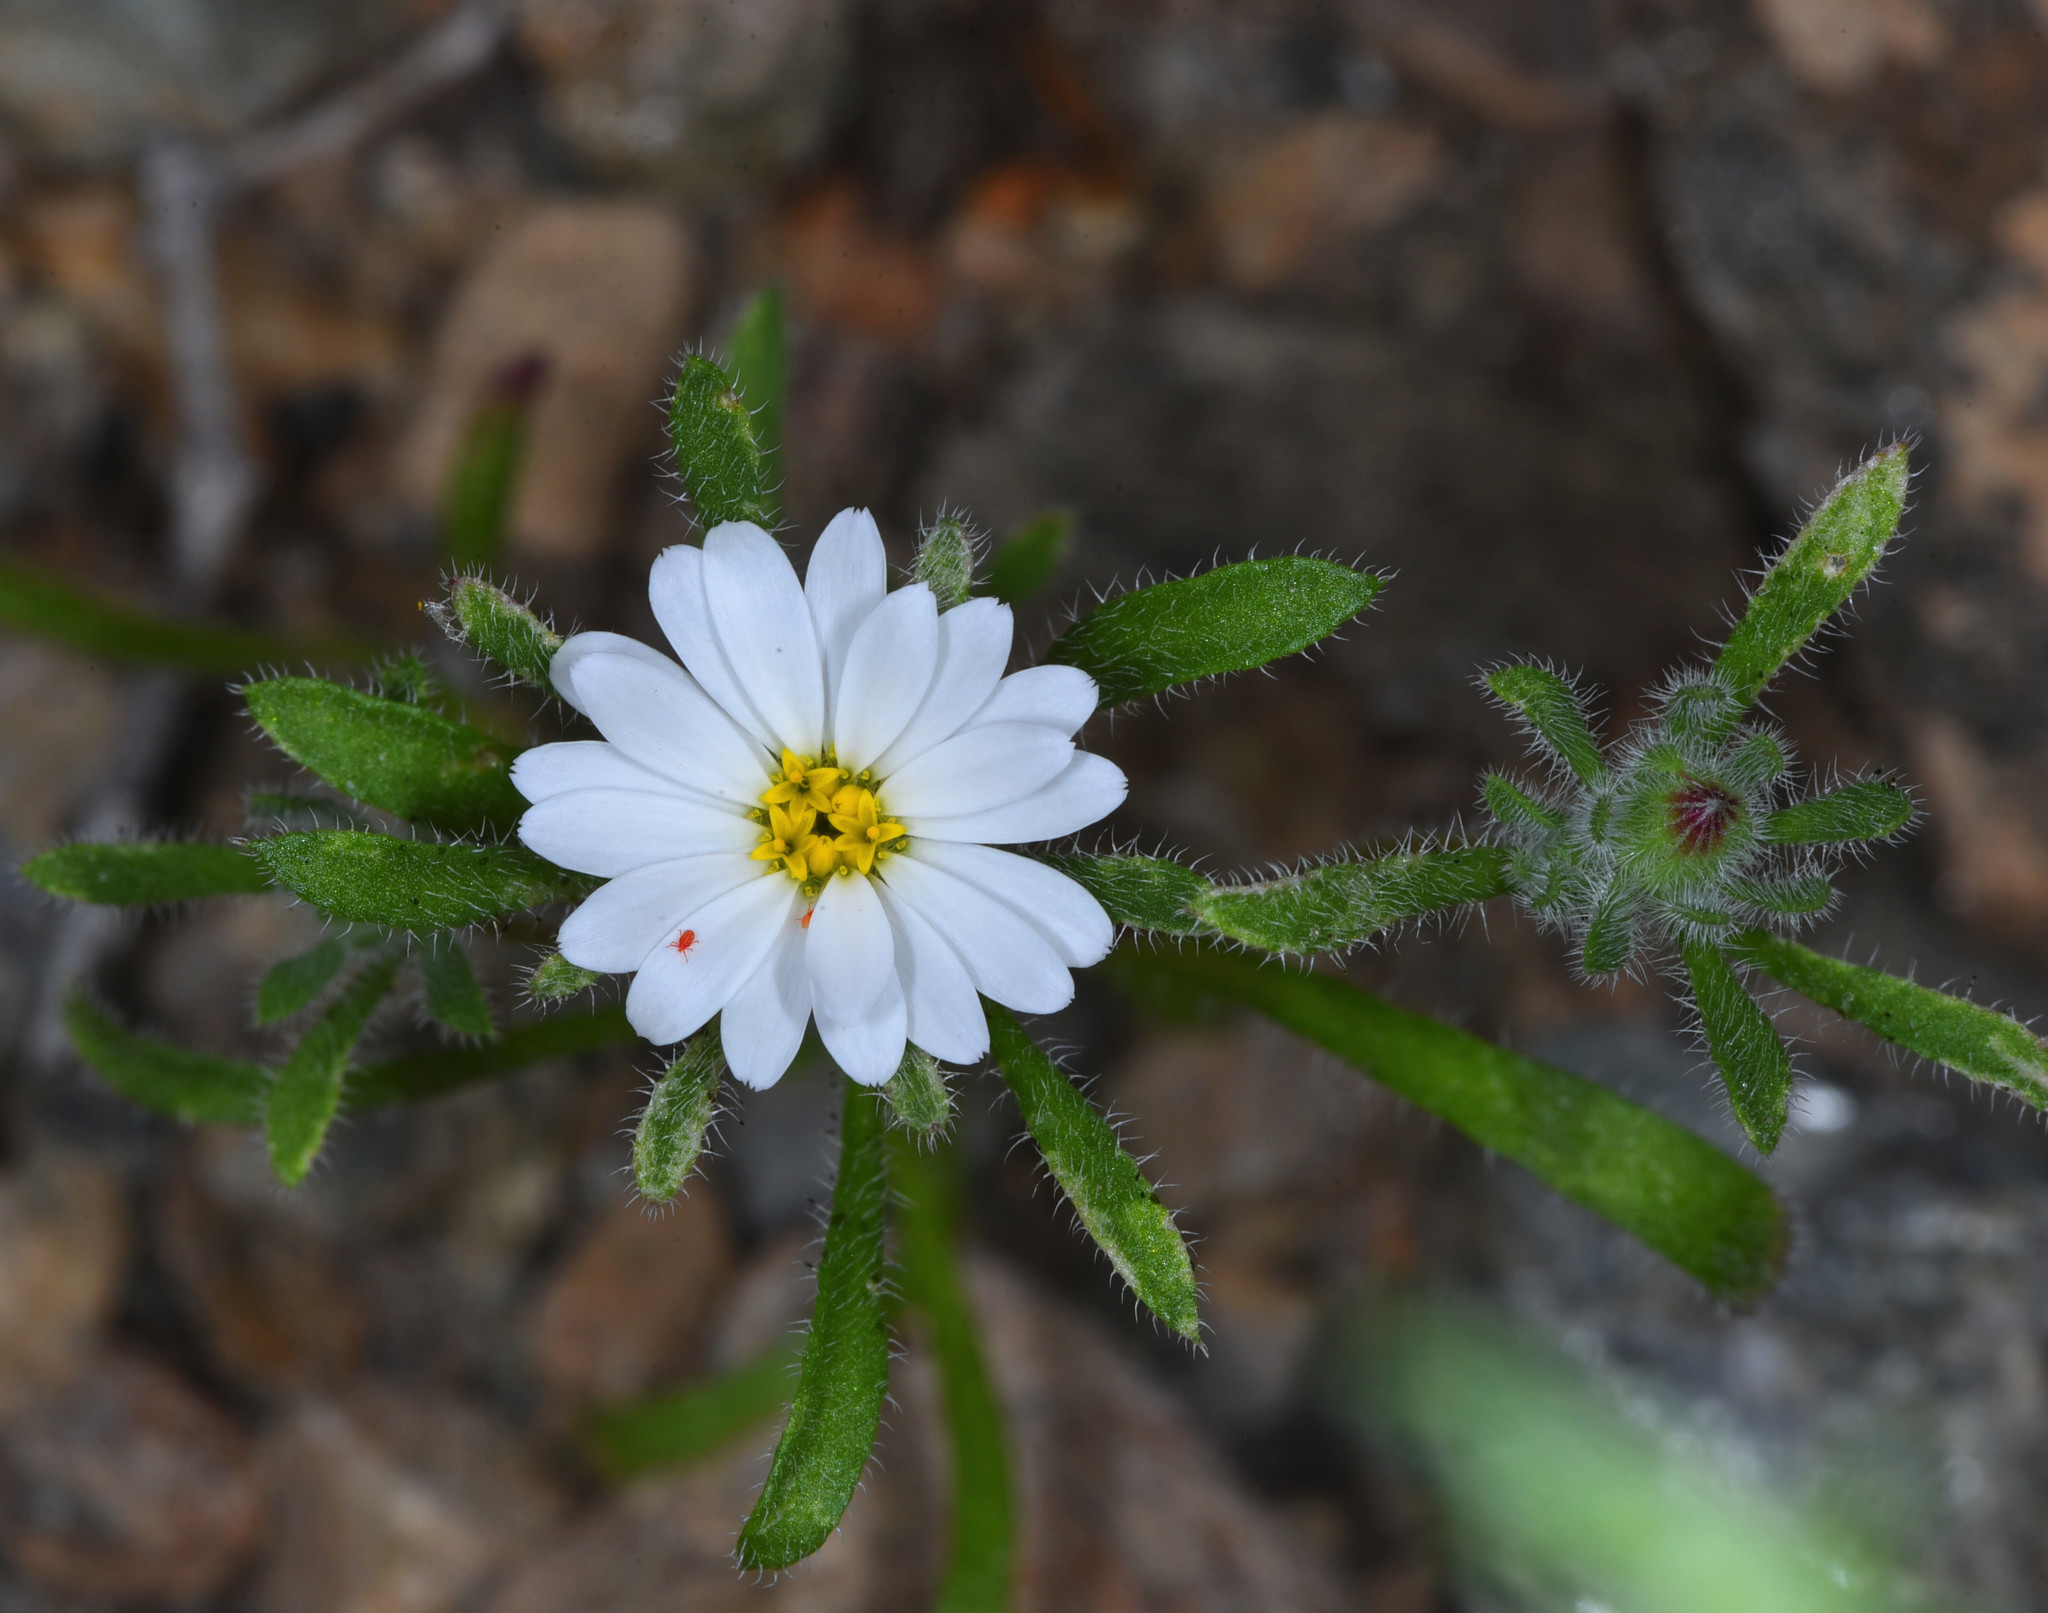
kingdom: Plantae
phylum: Tracheophyta
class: Magnoliopsida
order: Asterales
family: Asteraceae
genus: Monoptilon
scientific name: Monoptilon bellioides
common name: Bristly desertstar
